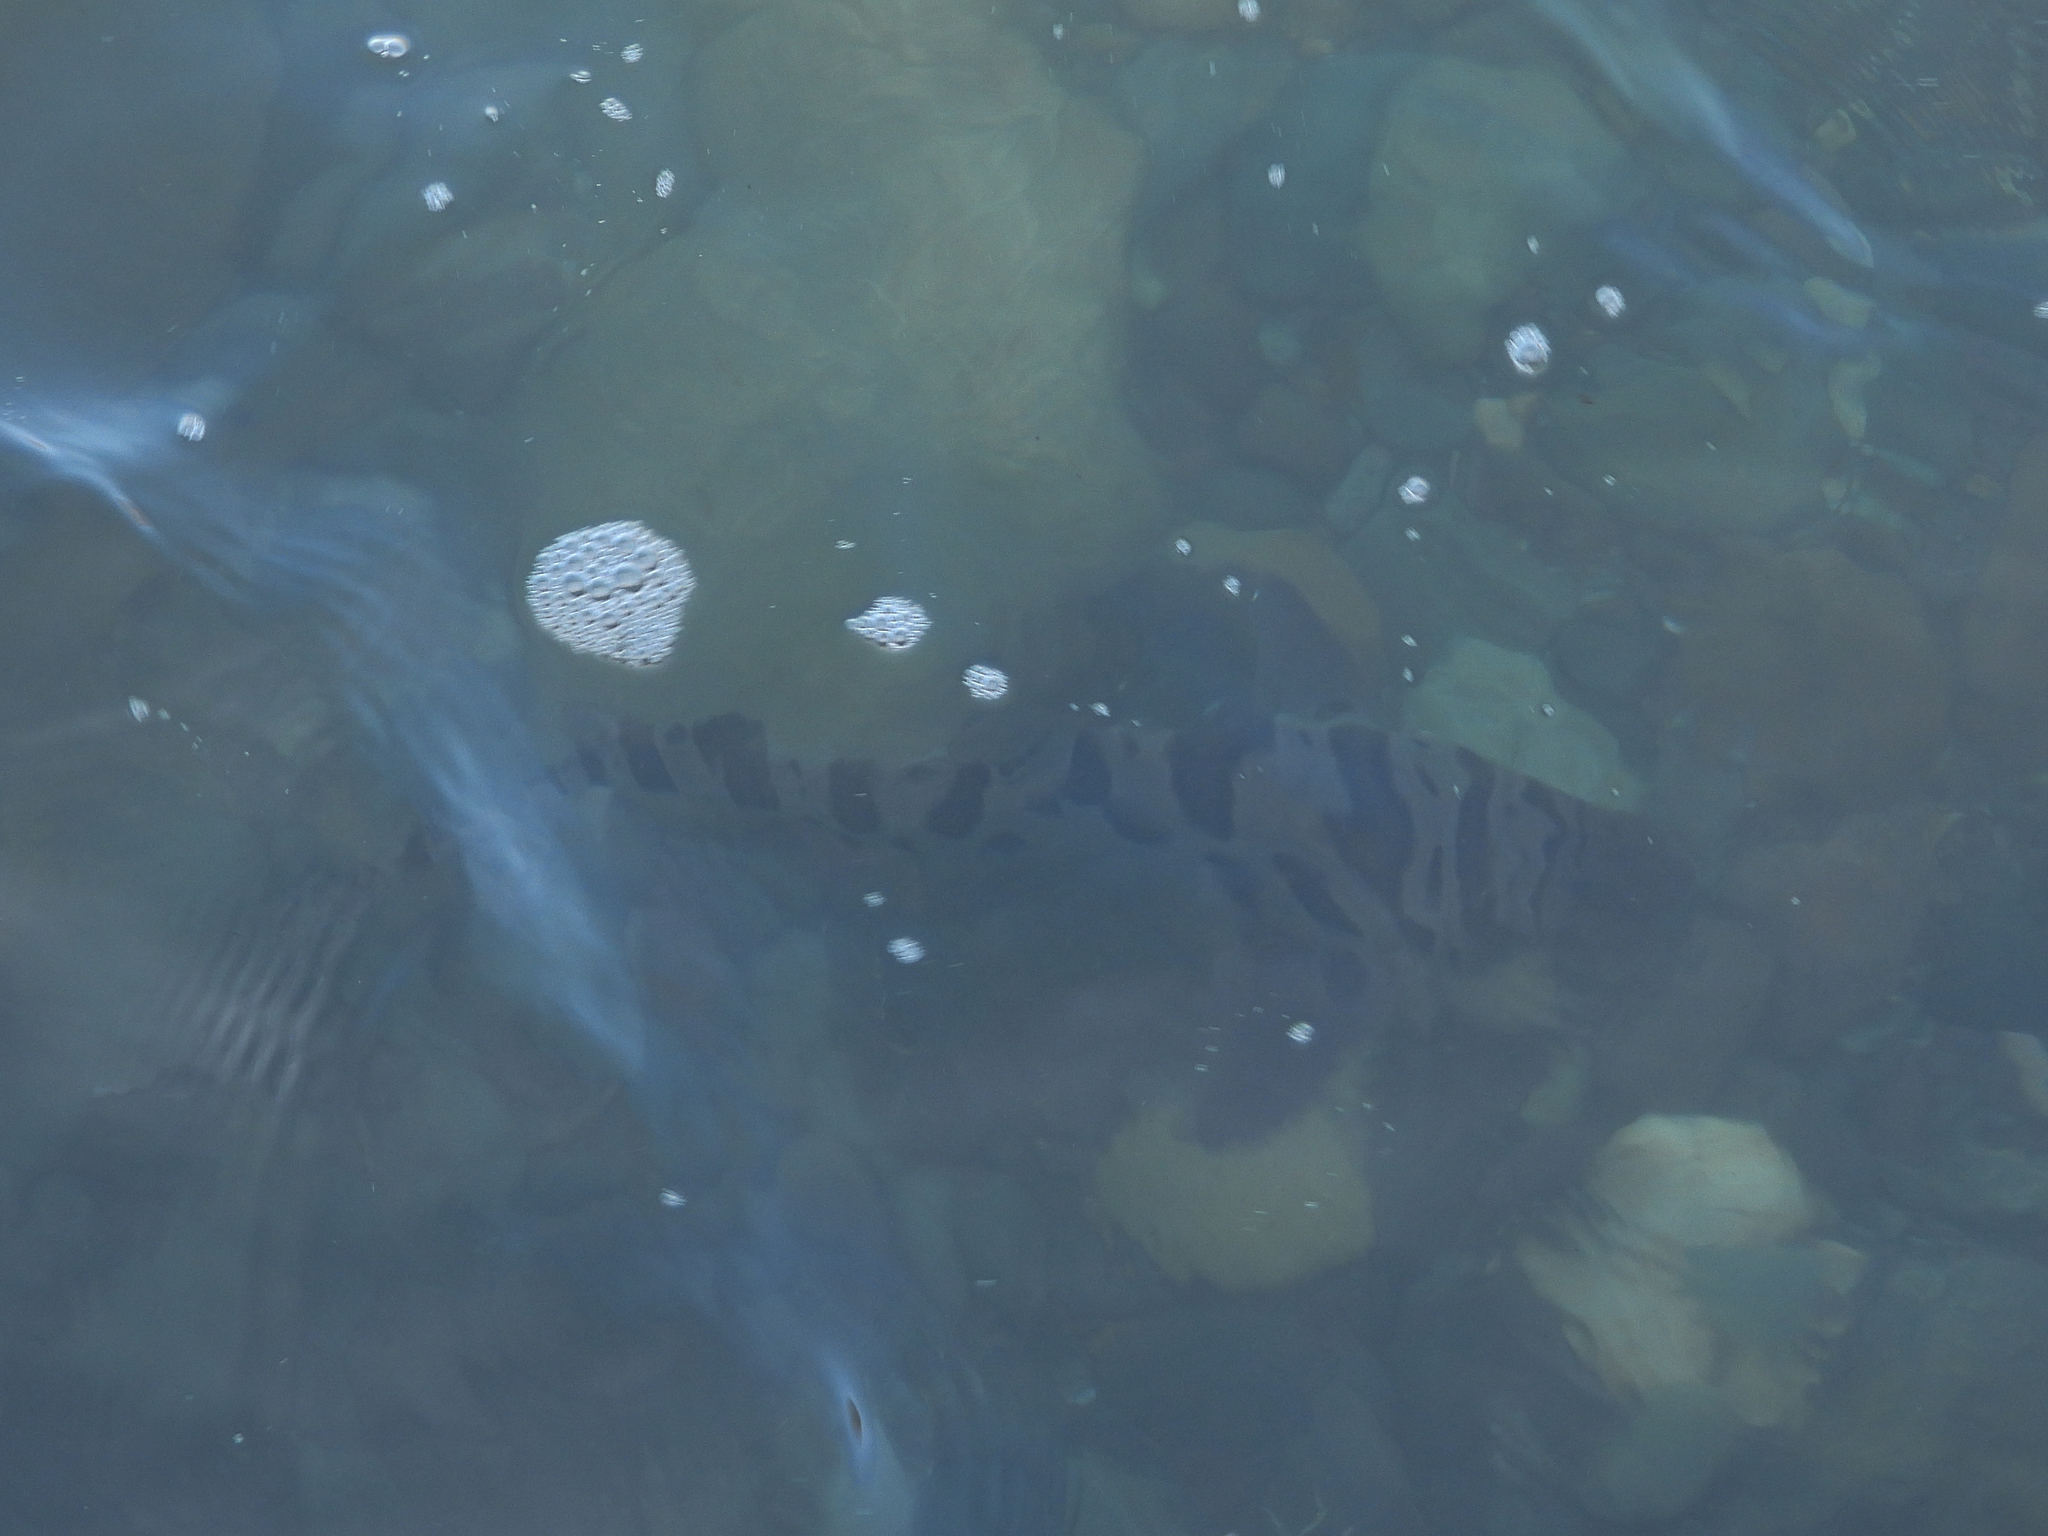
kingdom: Animalia
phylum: Chordata
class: Elasmobranchii
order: Carcharhiniformes
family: Triakidae
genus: Triakis
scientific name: Triakis semifasciata
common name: Leopard shark
